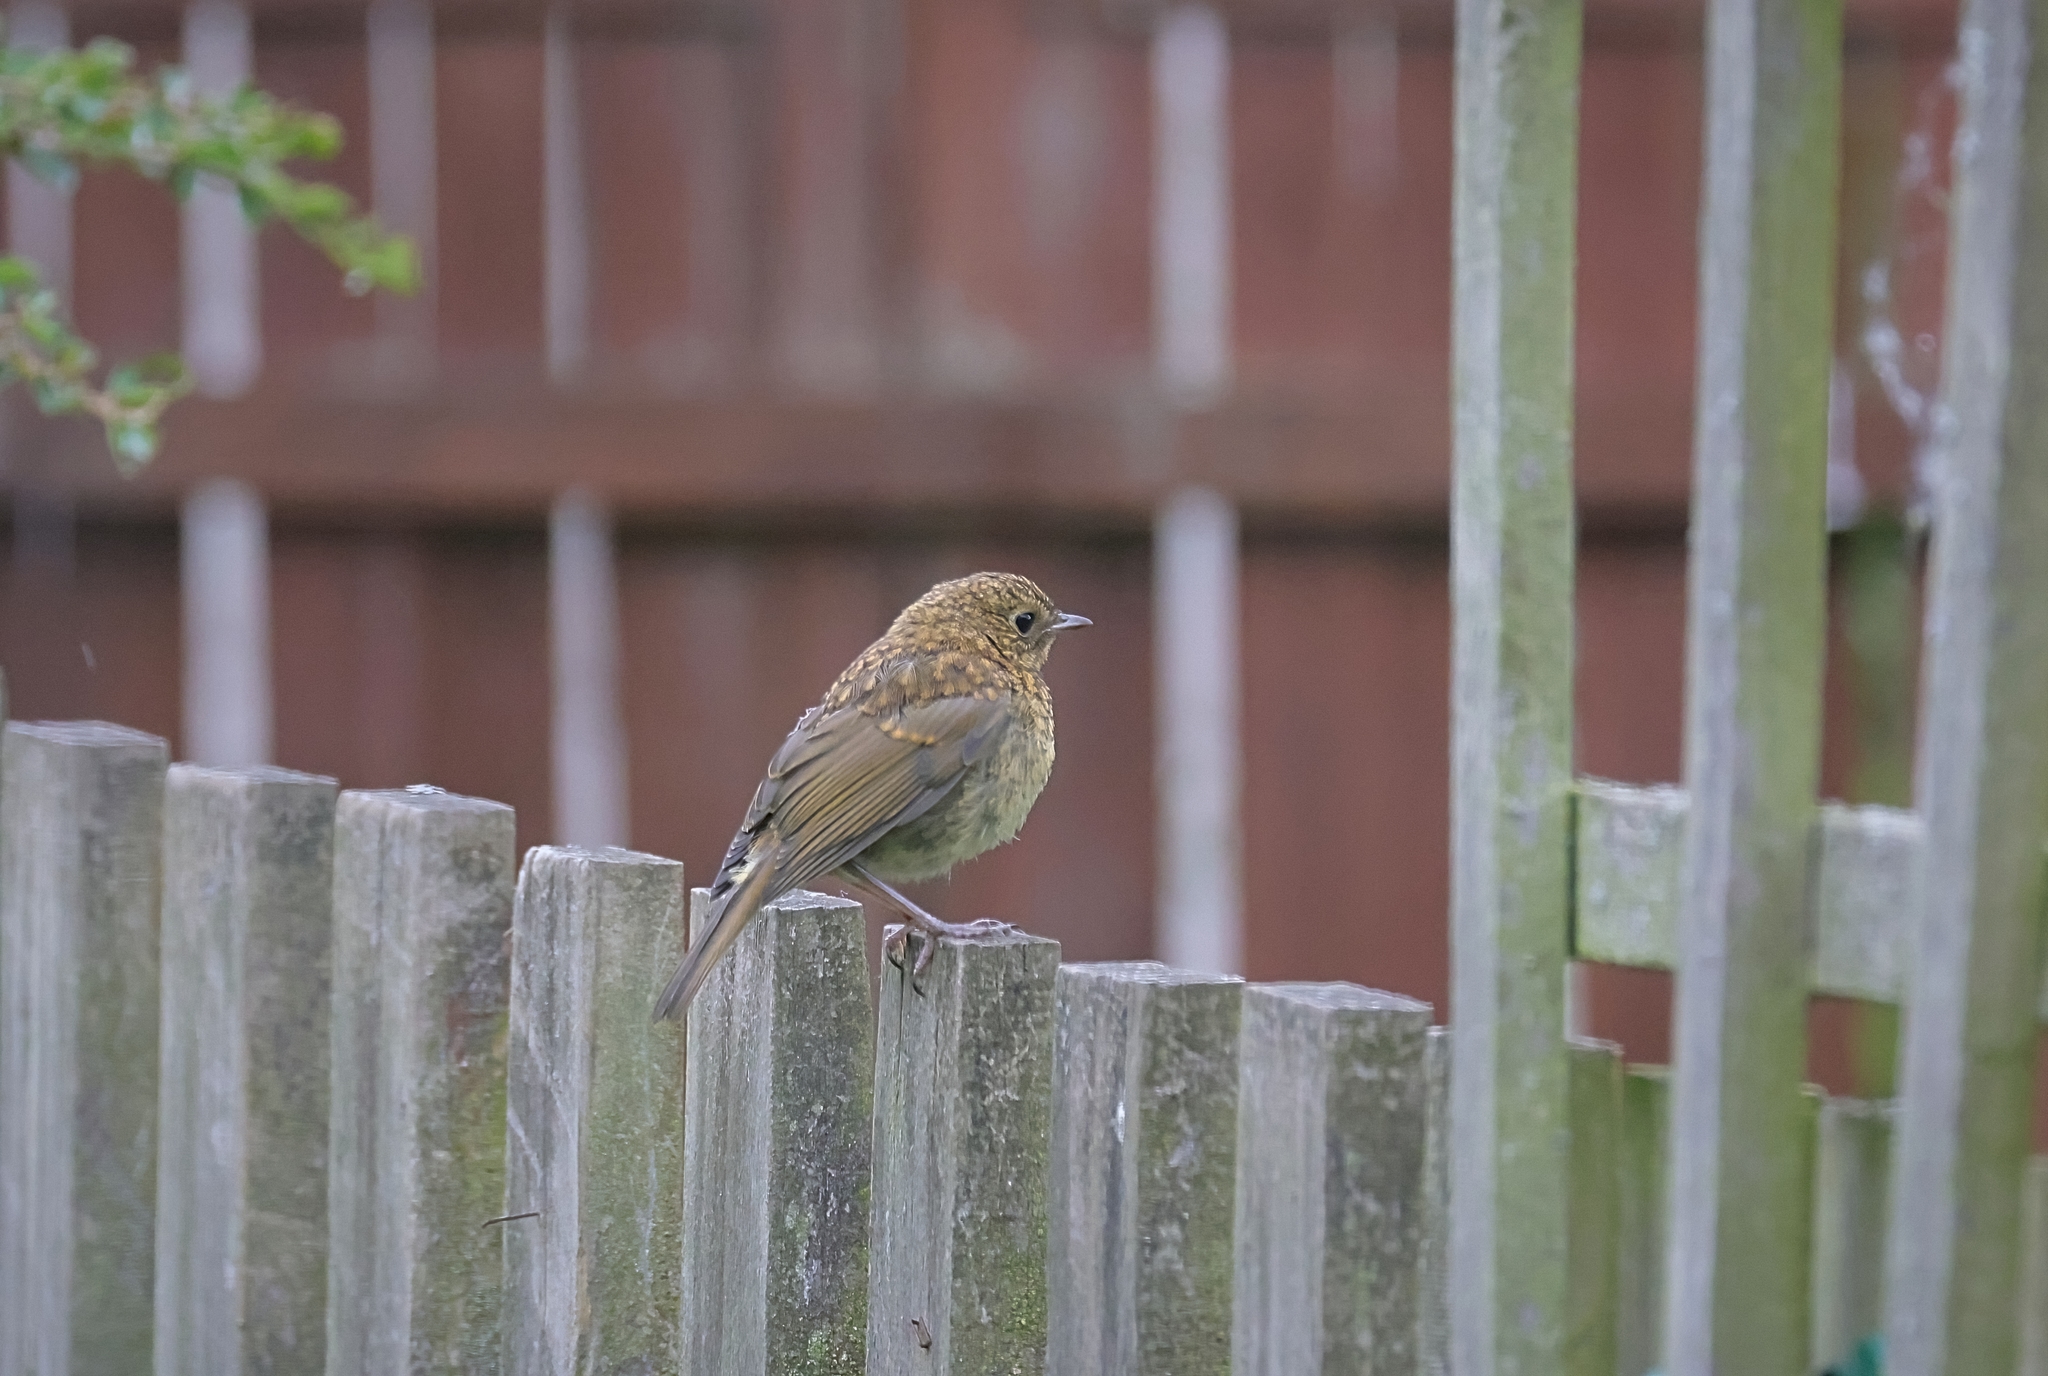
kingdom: Animalia
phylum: Chordata
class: Aves
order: Passeriformes
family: Muscicapidae
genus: Erithacus
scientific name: Erithacus rubecula
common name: European robin
